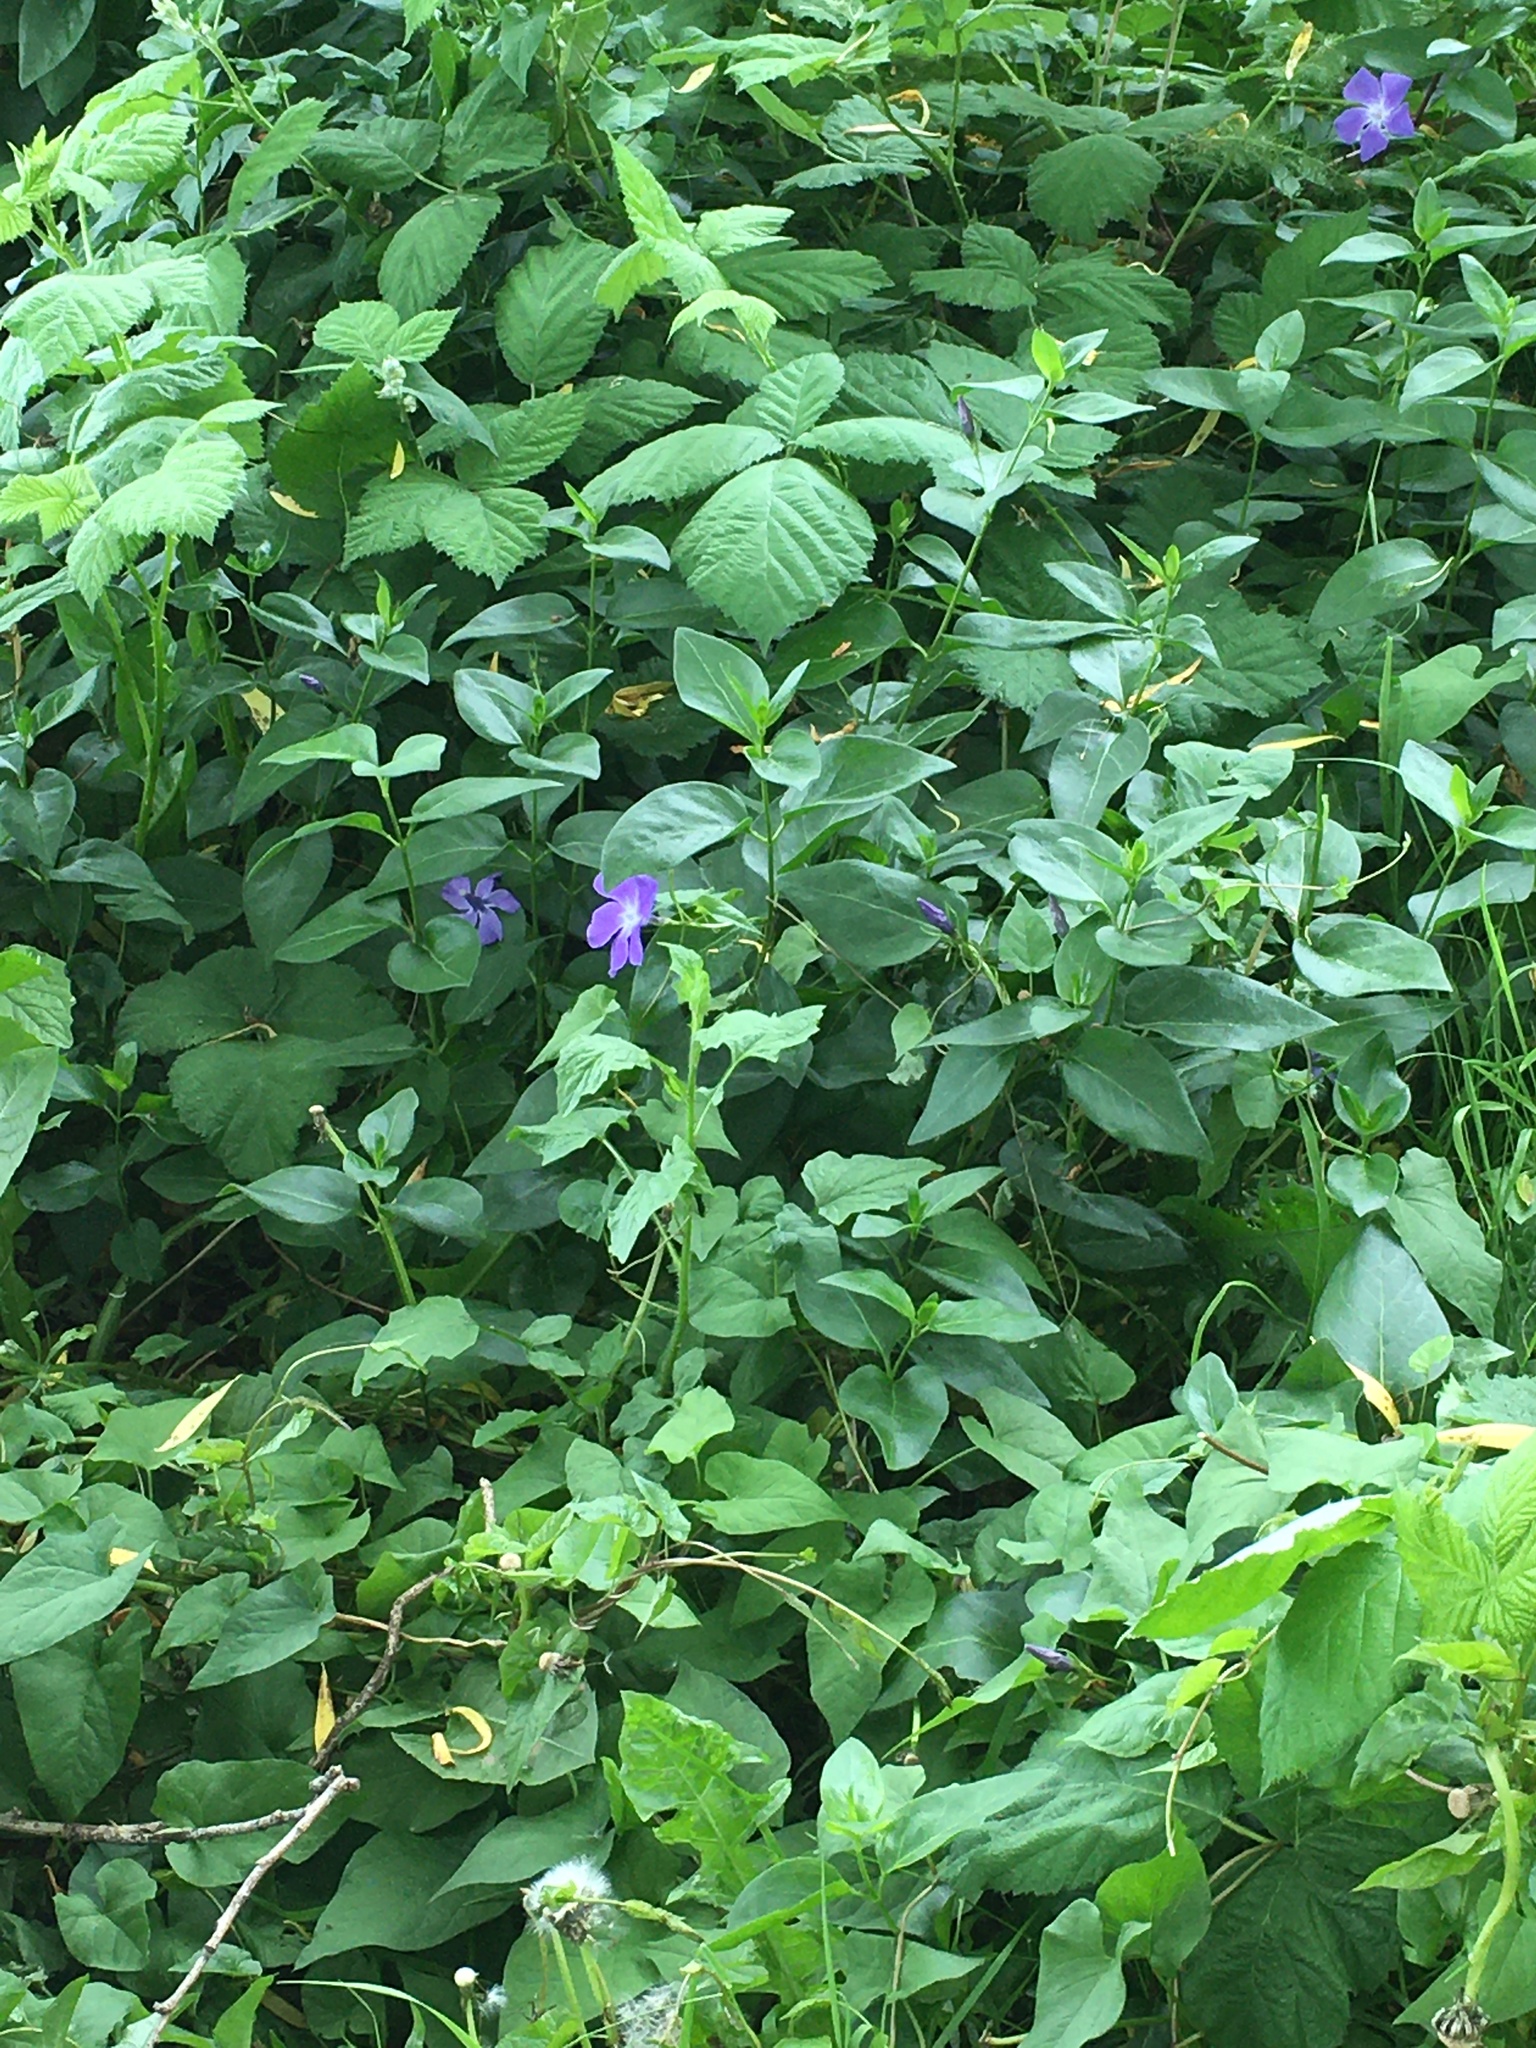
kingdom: Plantae
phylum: Tracheophyta
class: Magnoliopsida
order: Gentianales
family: Apocynaceae
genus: Vinca
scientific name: Vinca major
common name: Greater periwinkle
